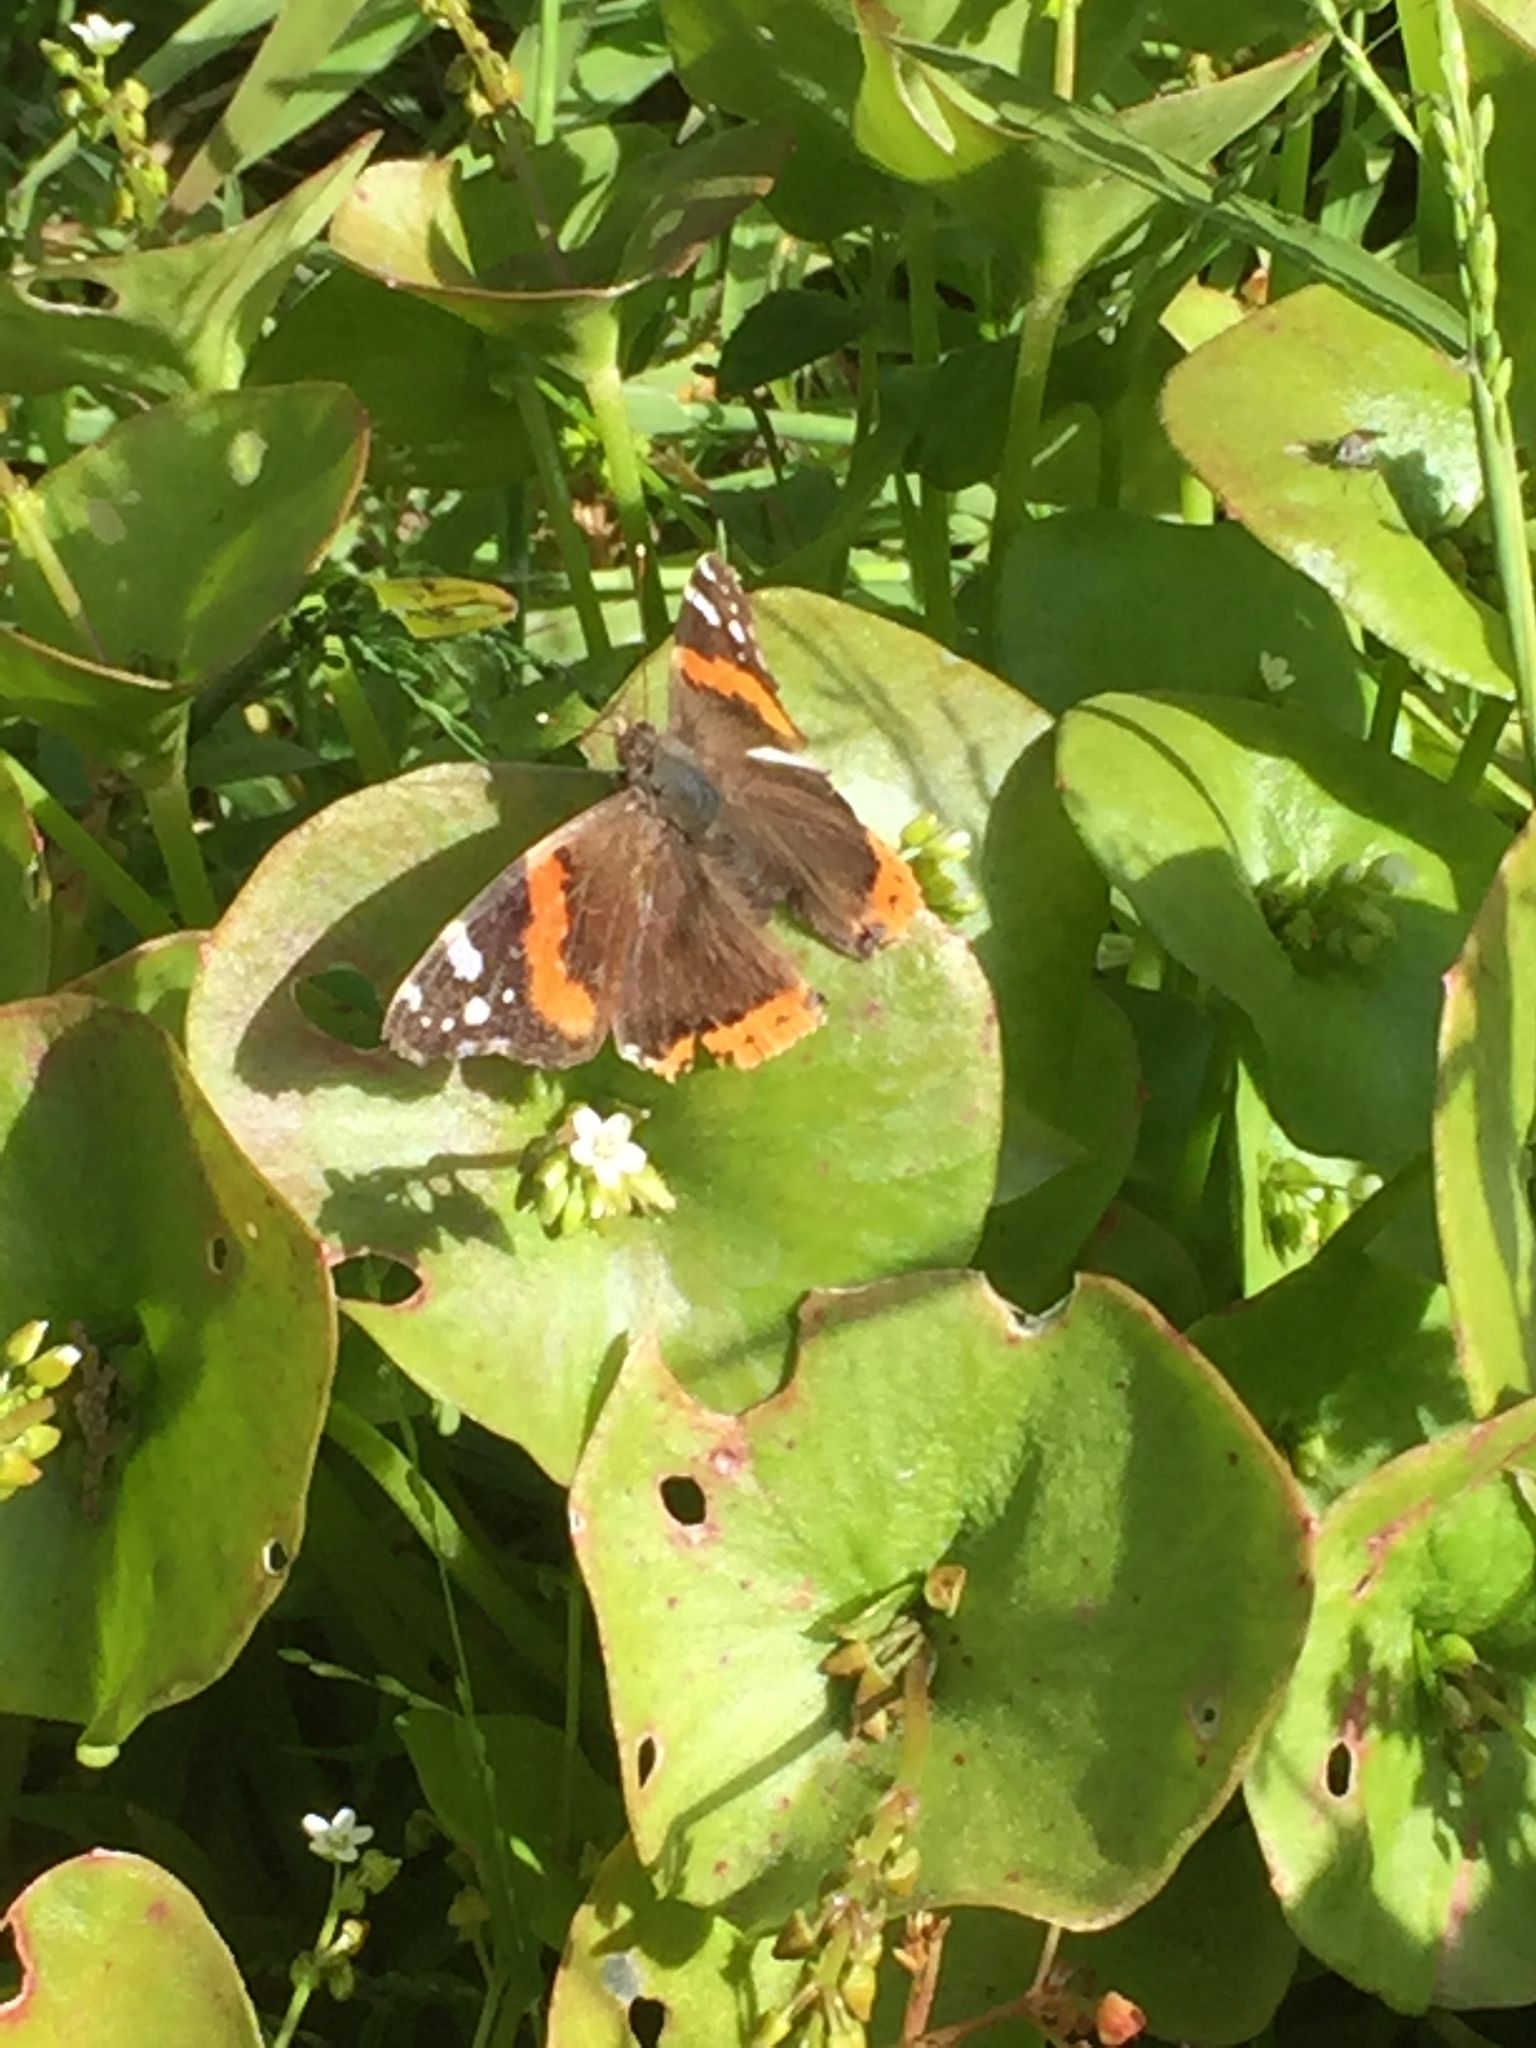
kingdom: Animalia
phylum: Arthropoda
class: Insecta
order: Lepidoptera
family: Nymphalidae
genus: Vanessa
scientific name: Vanessa atalanta
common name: Red admiral
